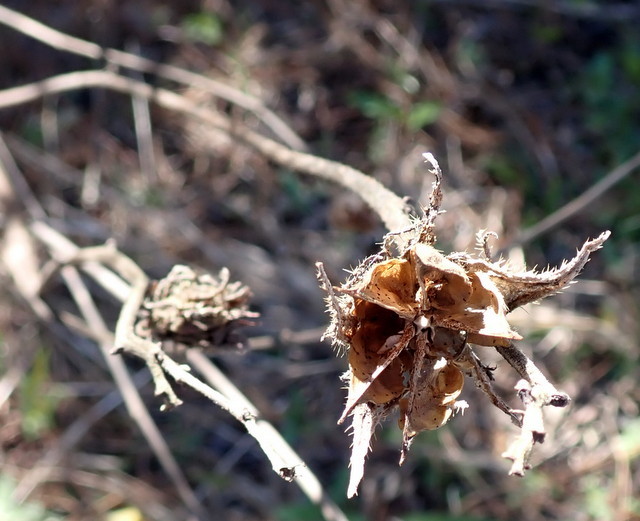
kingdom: Plantae
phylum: Tracheophyta
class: Magnoliopsida
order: Malvales
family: Malvaceae
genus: Hibiscus
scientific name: Hibiscus aculeatus
